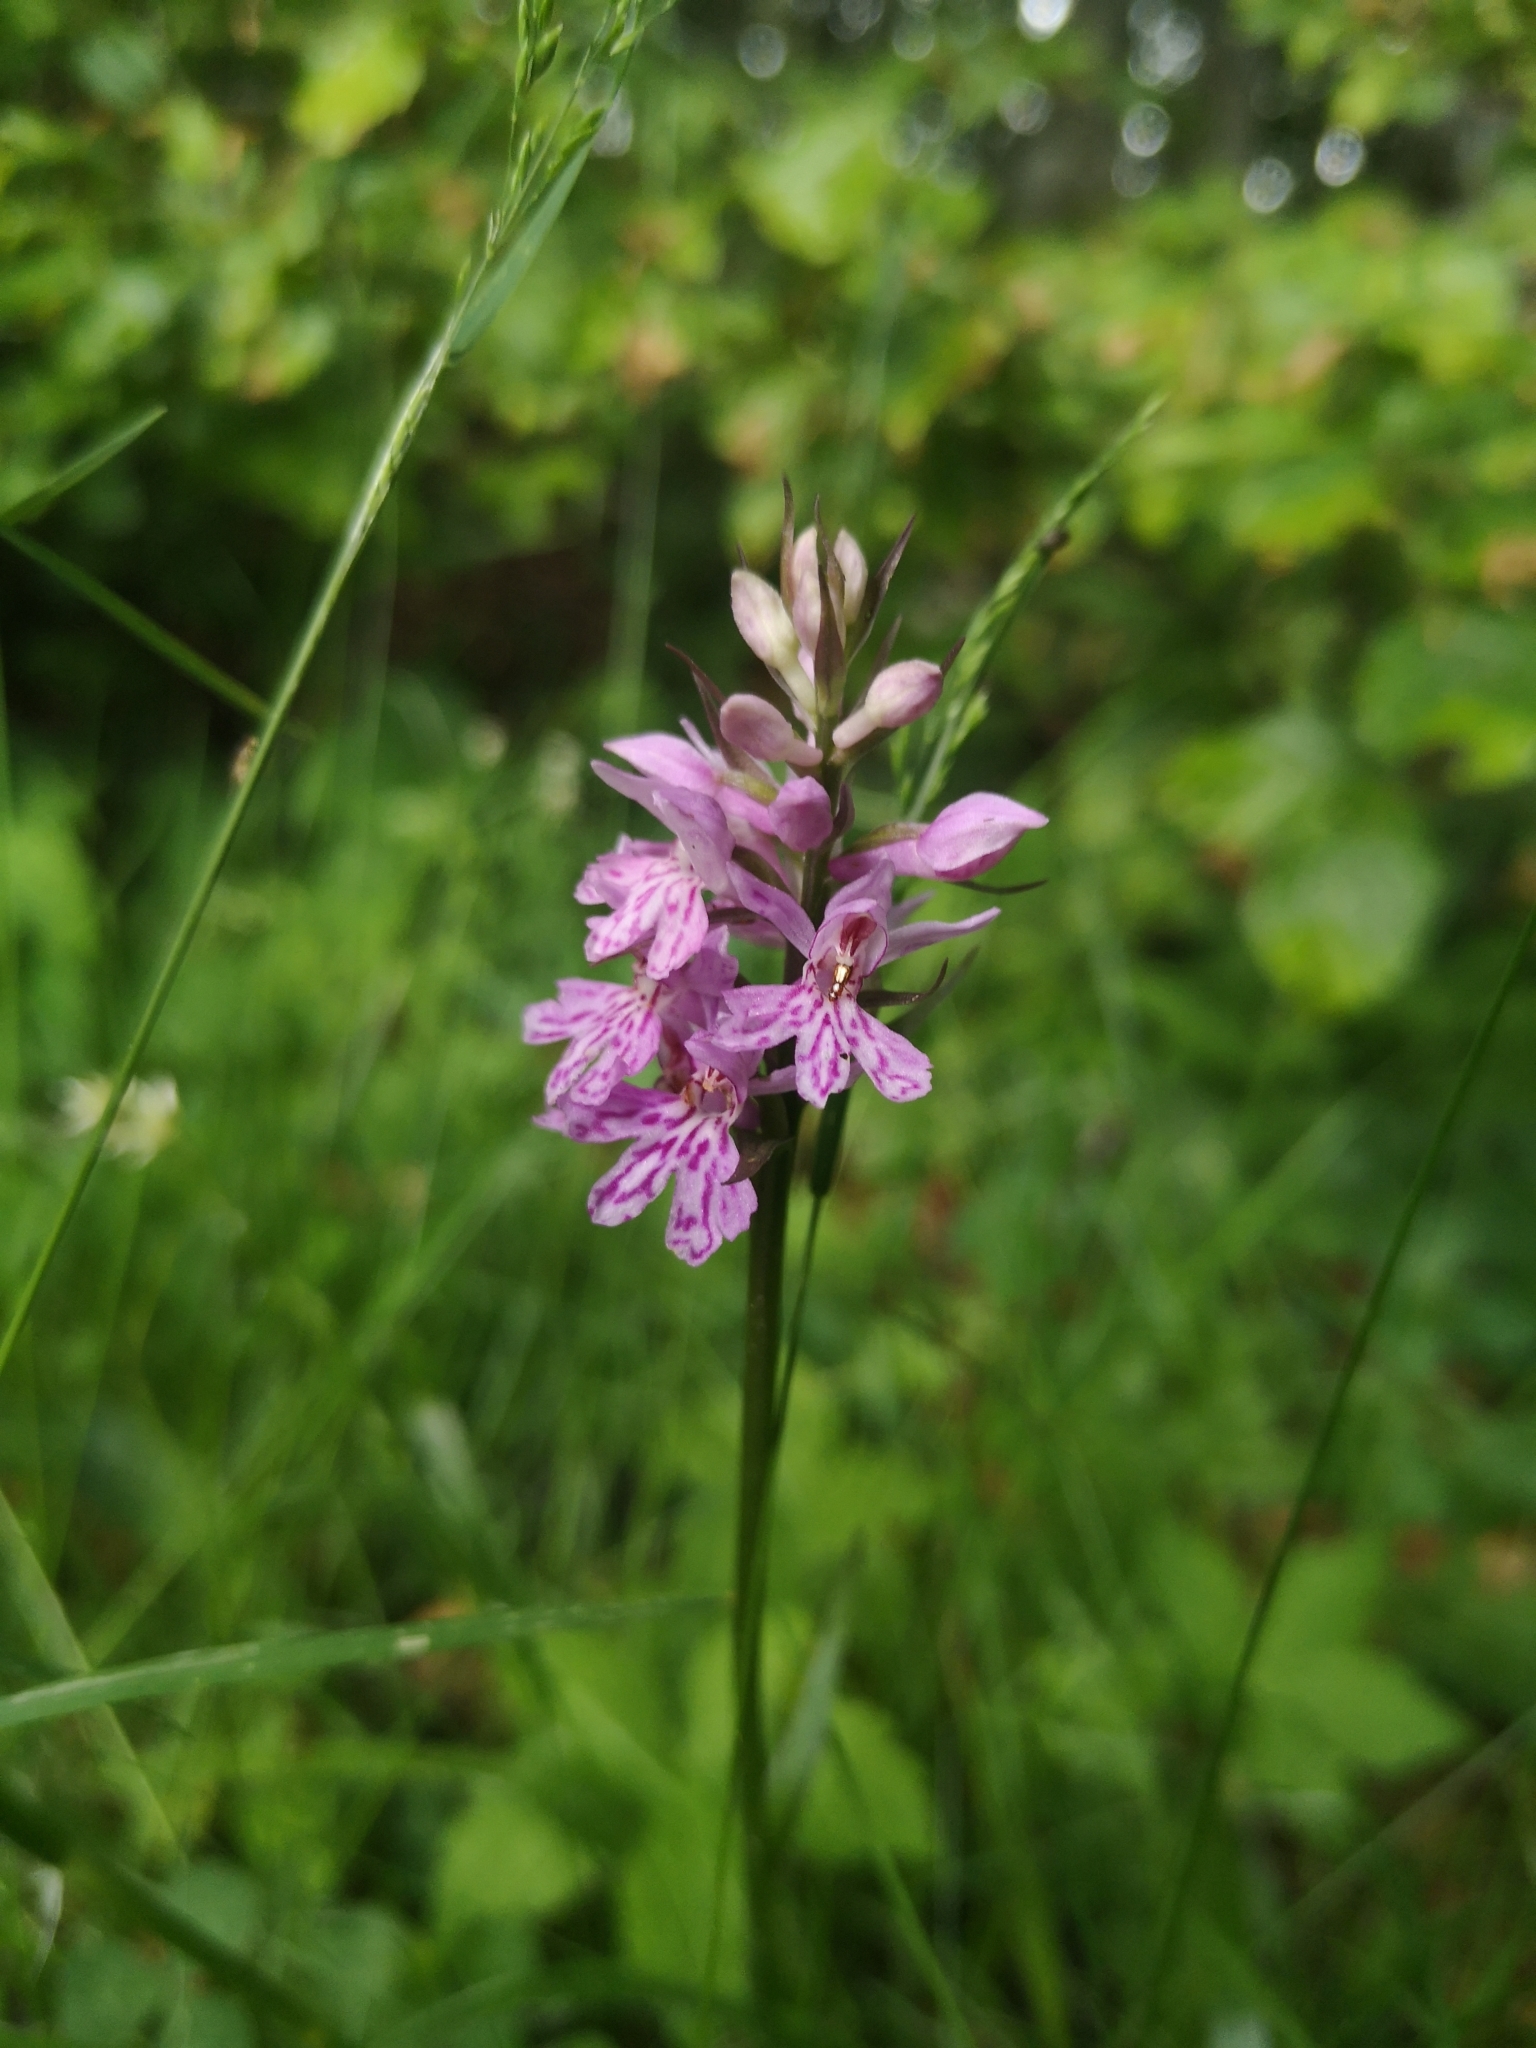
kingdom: Plantae
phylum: Tracheophyta
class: Liliopsida
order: Asparagales
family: Orchidaceae
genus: Dactylorhiza
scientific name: Dactylorhiza maculata
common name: Heath spotted-orchid
